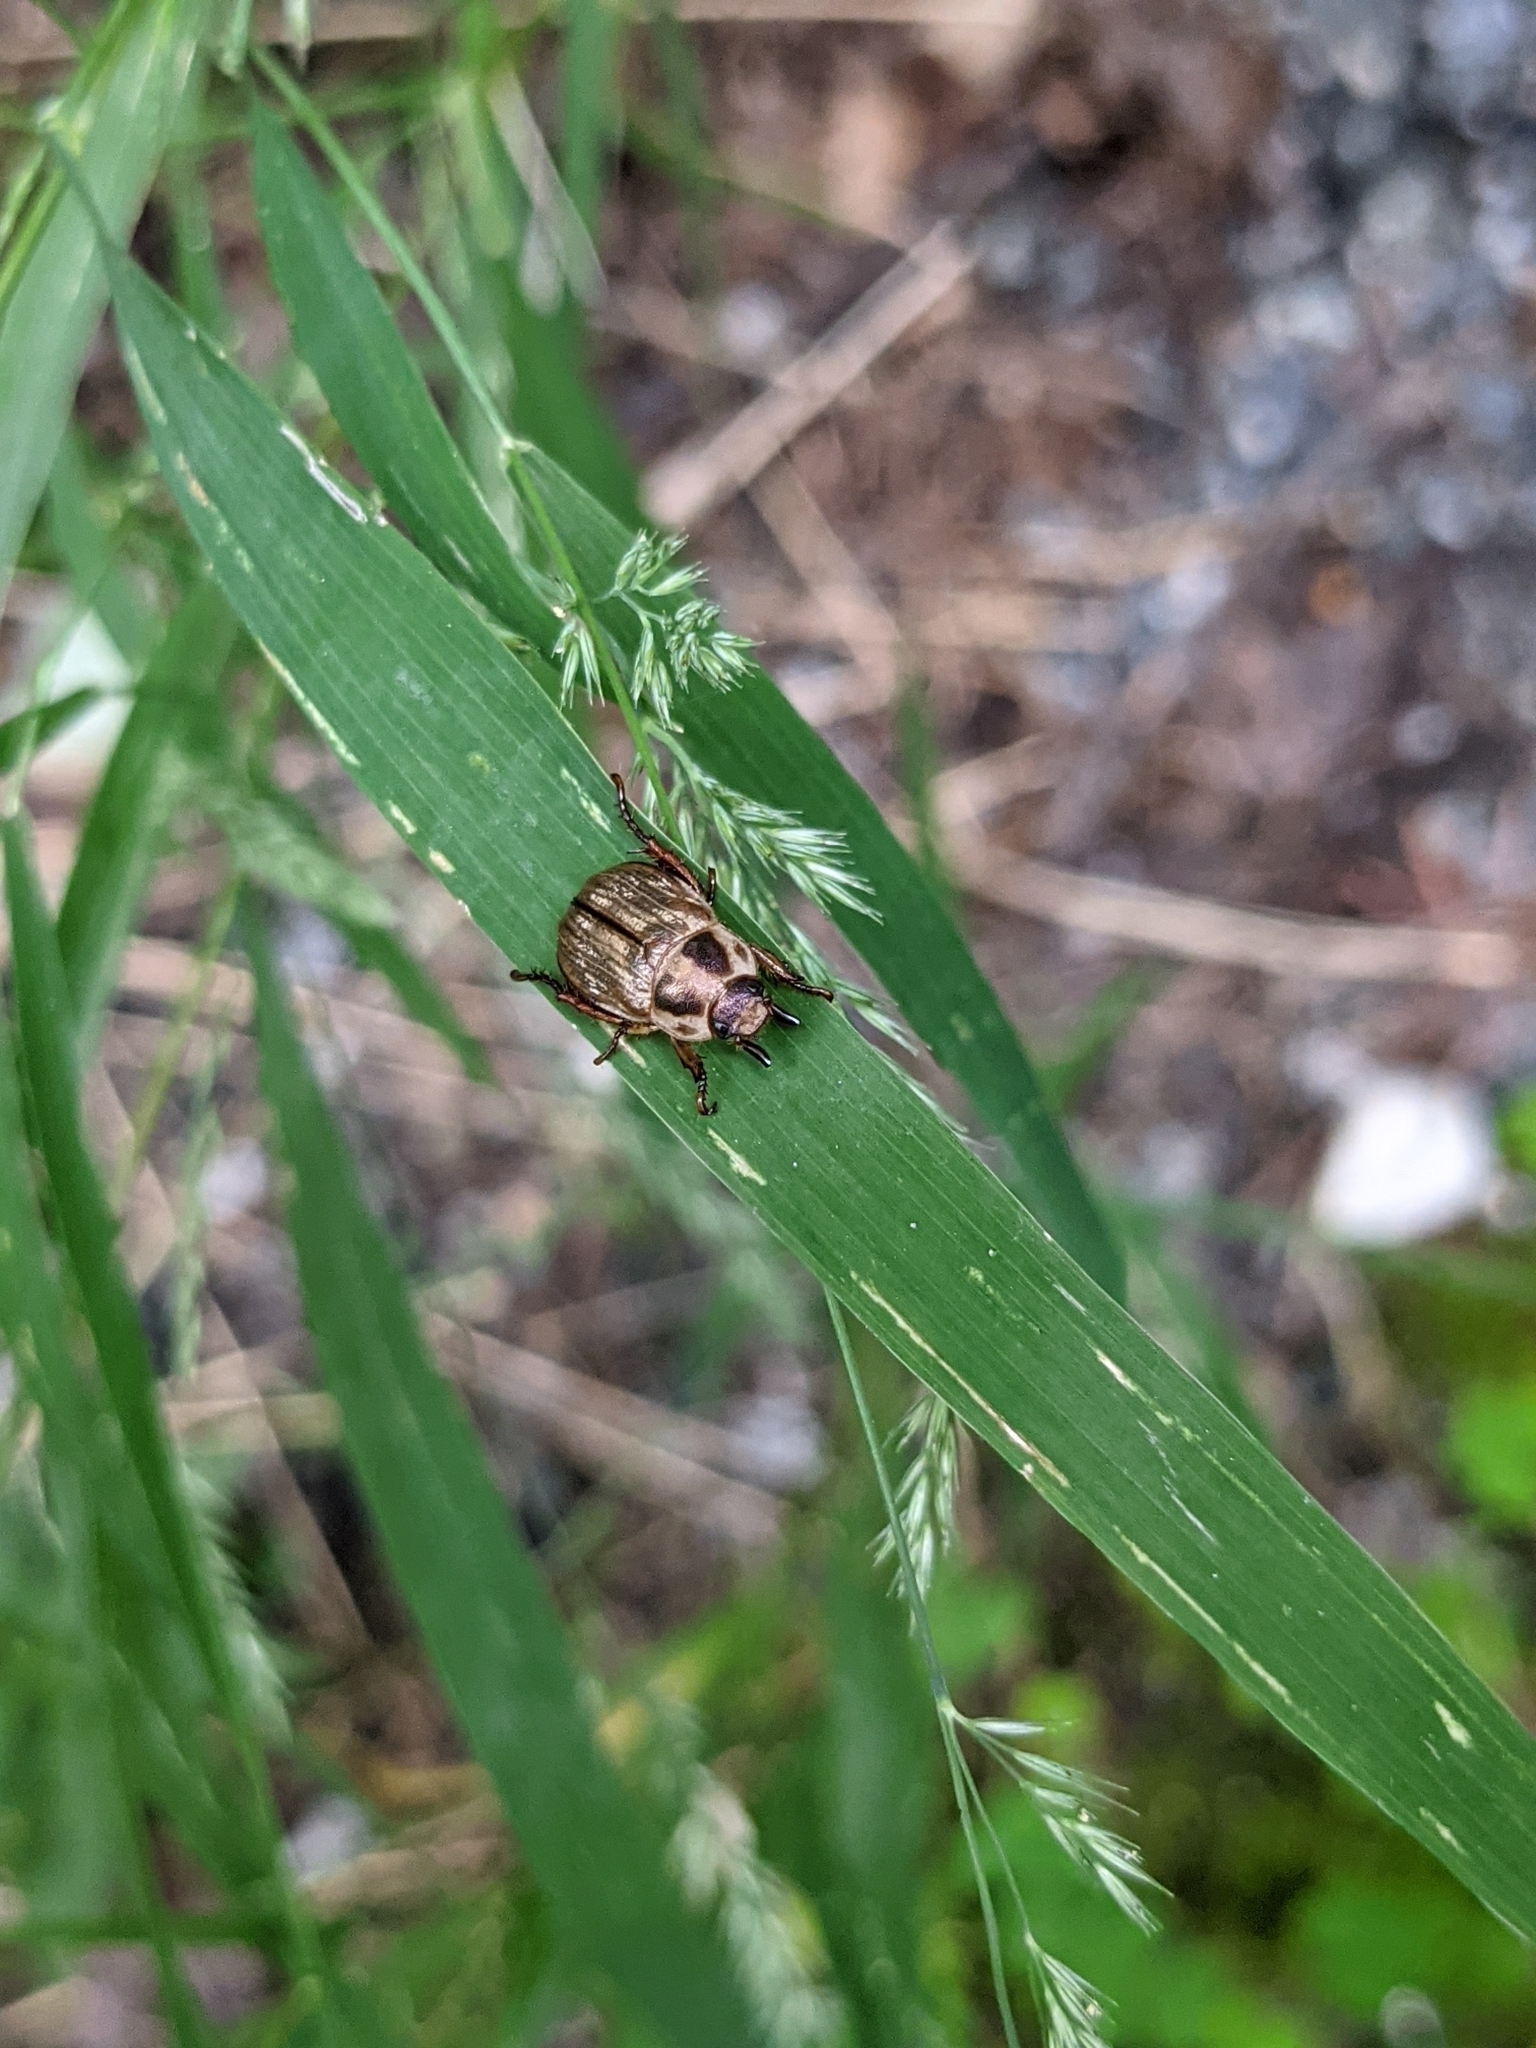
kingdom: Animalia
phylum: Arthropoda
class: Insecta
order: Coleoptera
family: Scarabaeidae
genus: Exomala
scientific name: Exomala orientalis
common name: Oriental beetle
